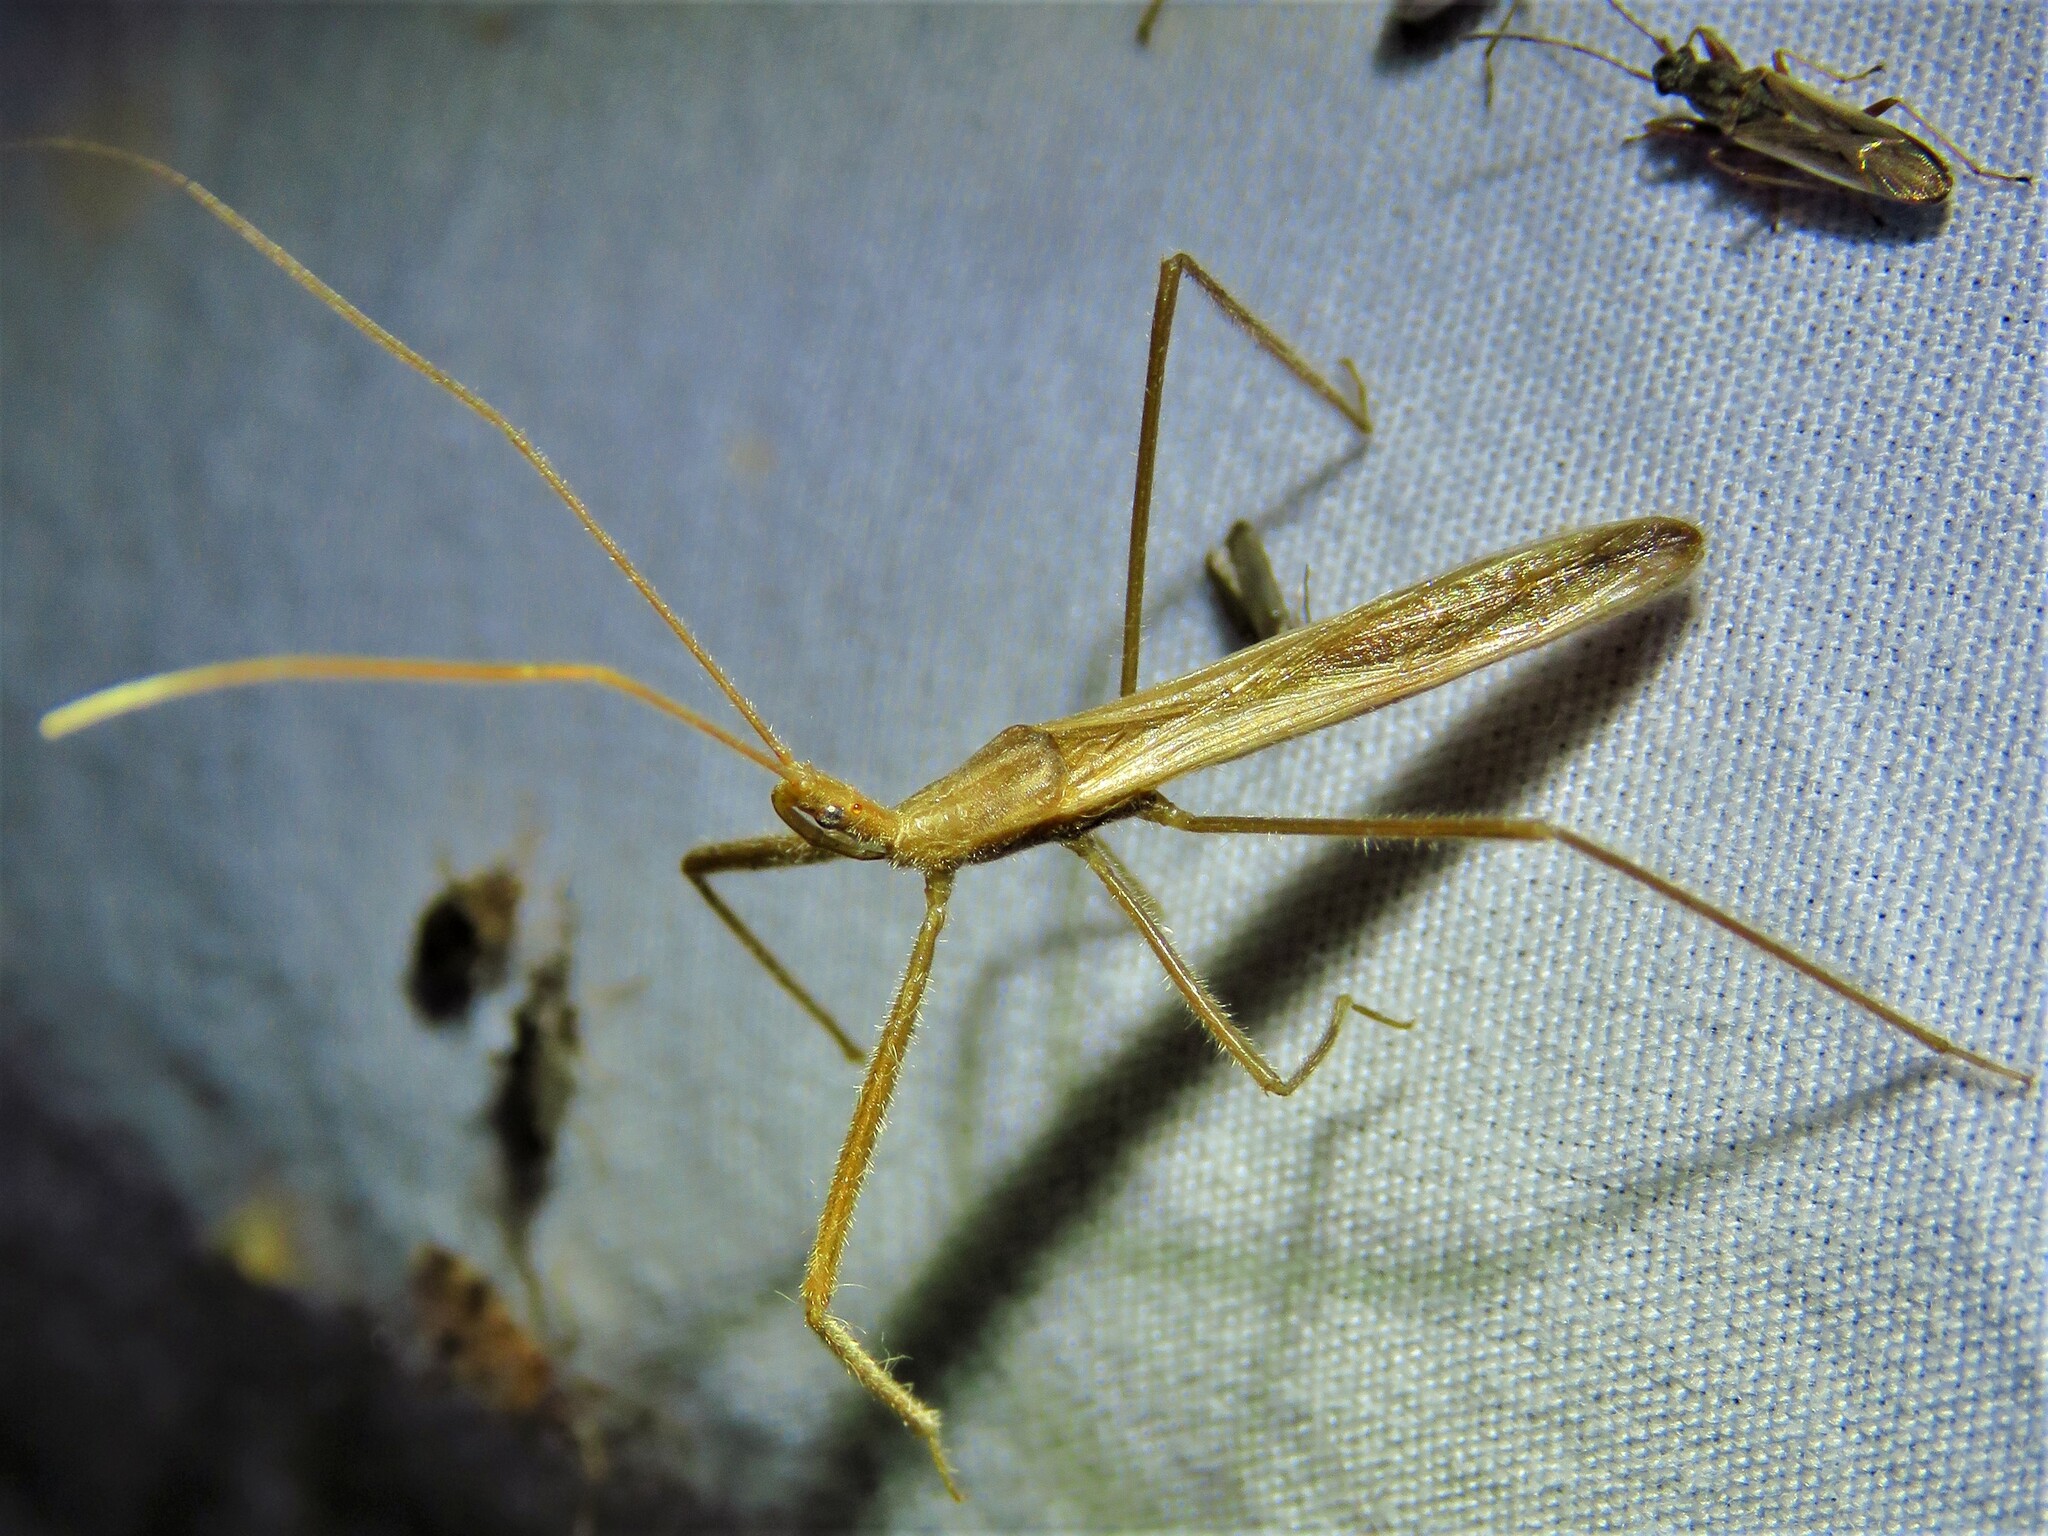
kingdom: Animalia
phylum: Arthropoda
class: Insecta
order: Hemiptera
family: Reduviidae
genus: Doldina
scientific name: Doldina interjungens
